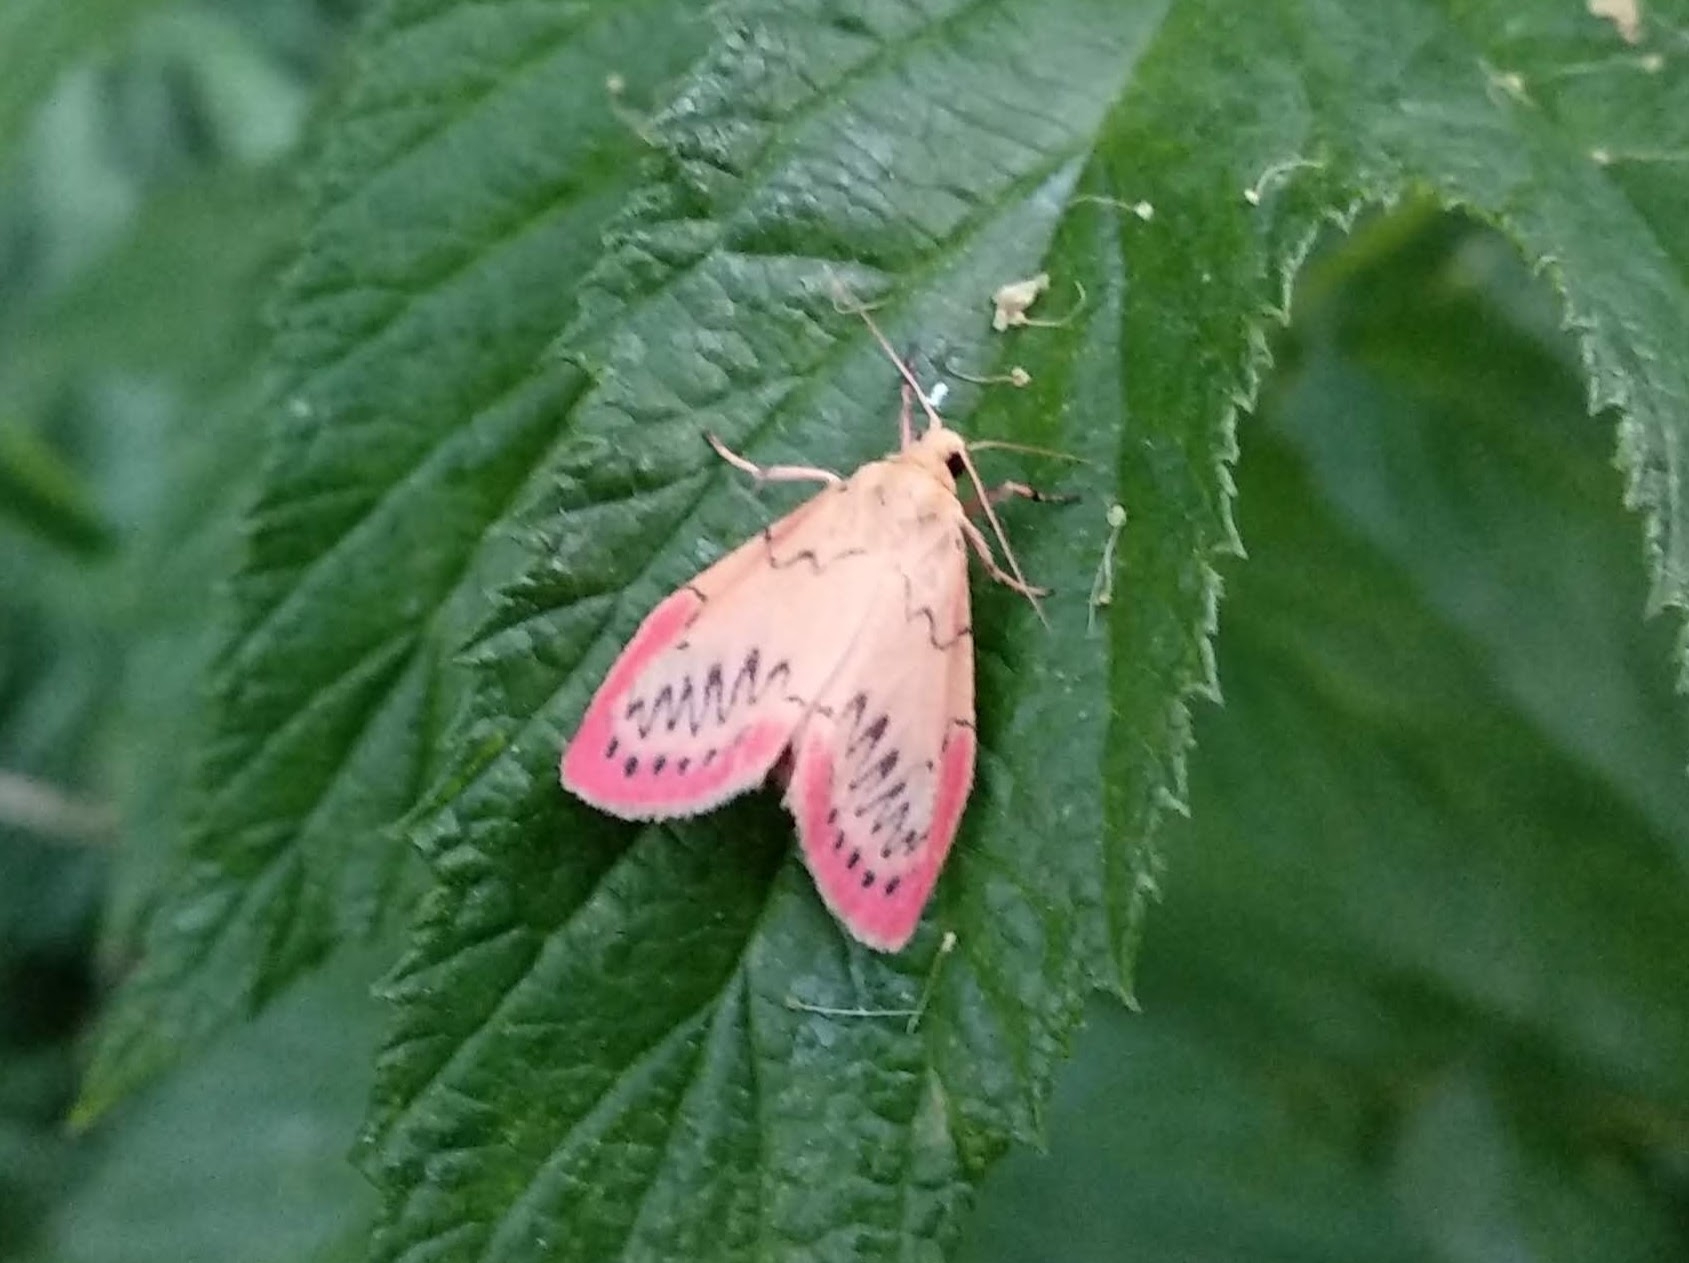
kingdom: Animalia
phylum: Arthropoda
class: Insecta
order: Lepidoptera
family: Erebidae
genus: Miltochrista
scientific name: Miltochrista miniata
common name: Rosy footman
